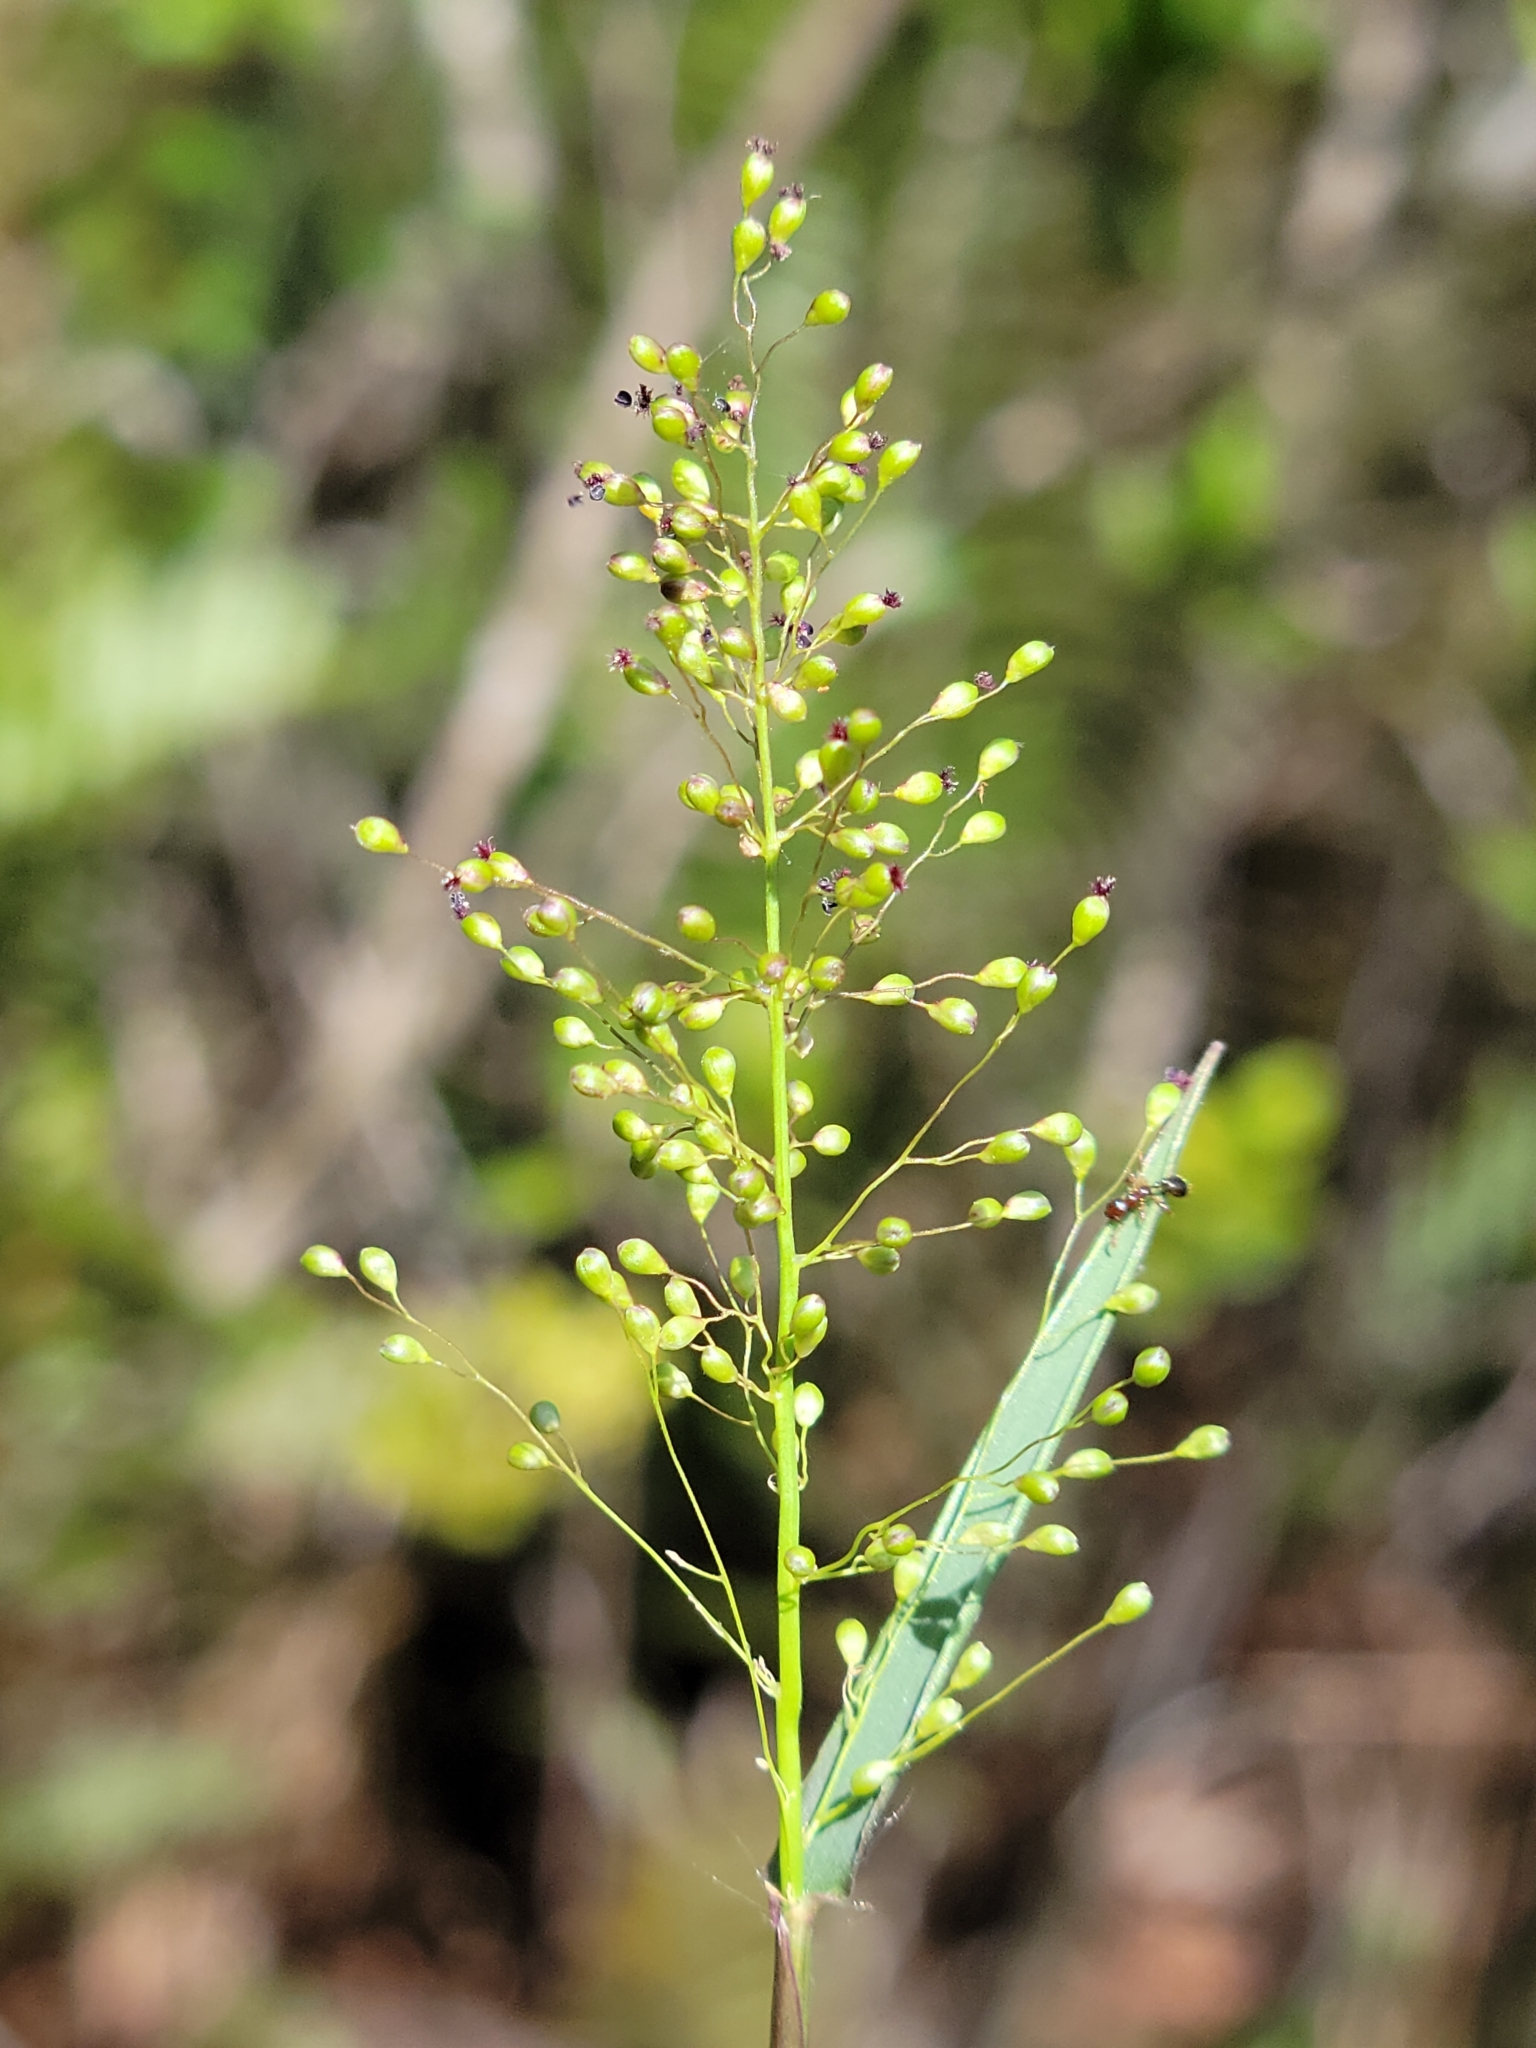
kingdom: Plantae
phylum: Tracheophyta
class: Liliopsida
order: Poales
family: Poaceae
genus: Dichanthelium
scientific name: Dichanthelium caerulescens
